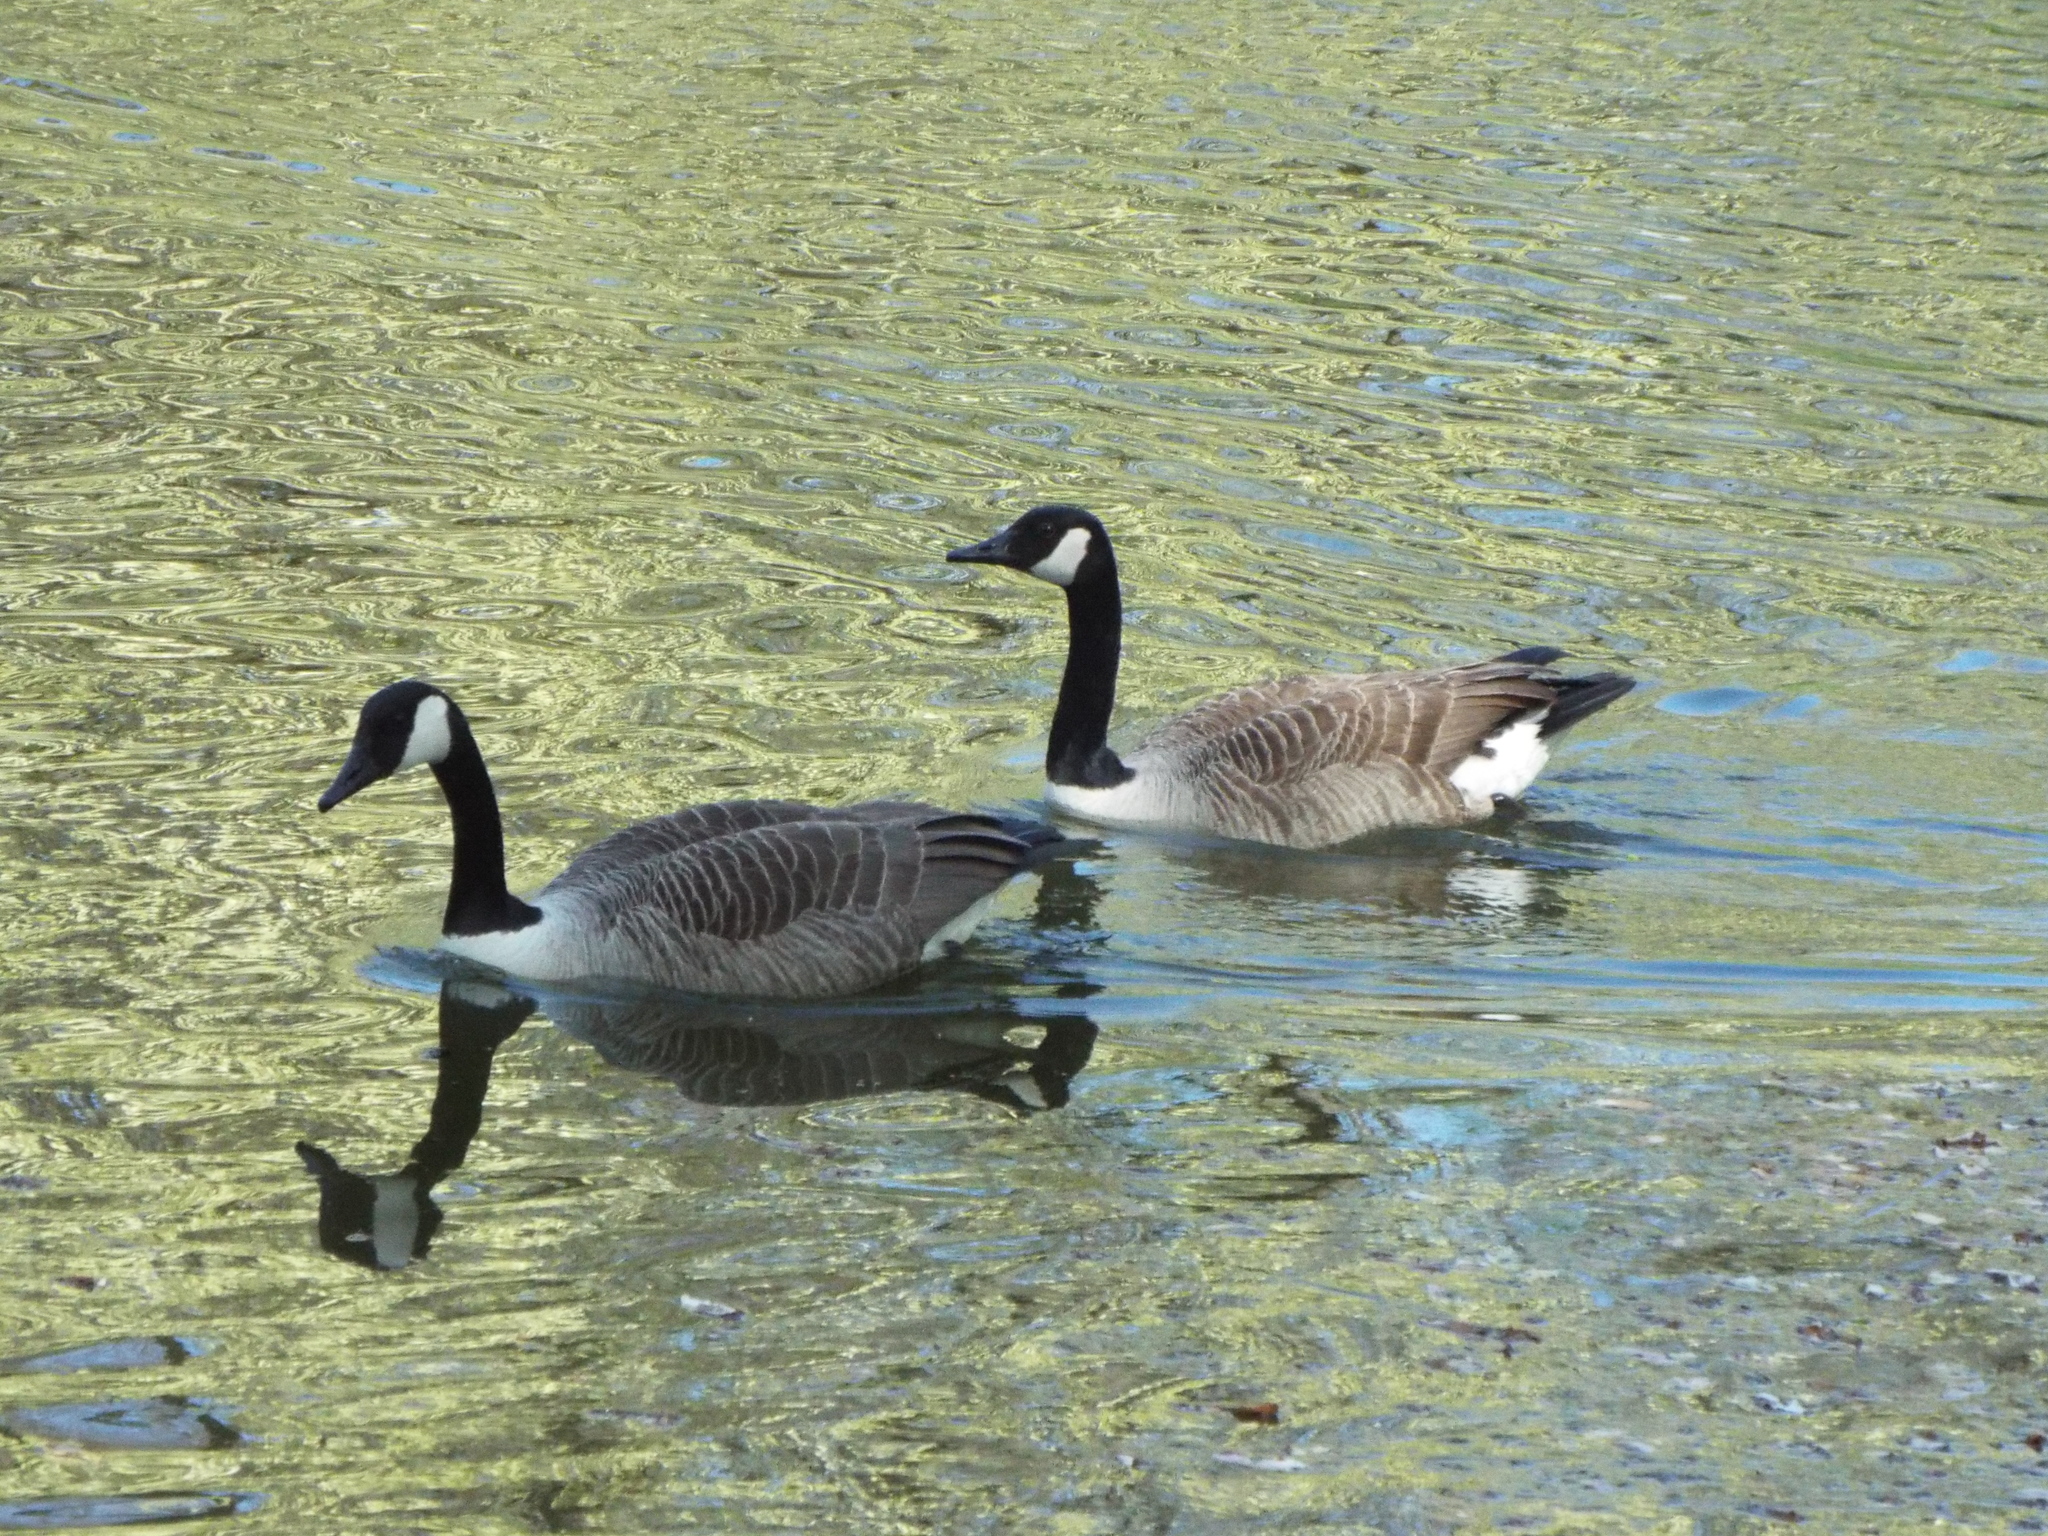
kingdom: Animalia
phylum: Chordata
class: Aves
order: Anseriformes
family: Anatidae
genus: Branta
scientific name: Branta canadensis
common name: Canada goose
